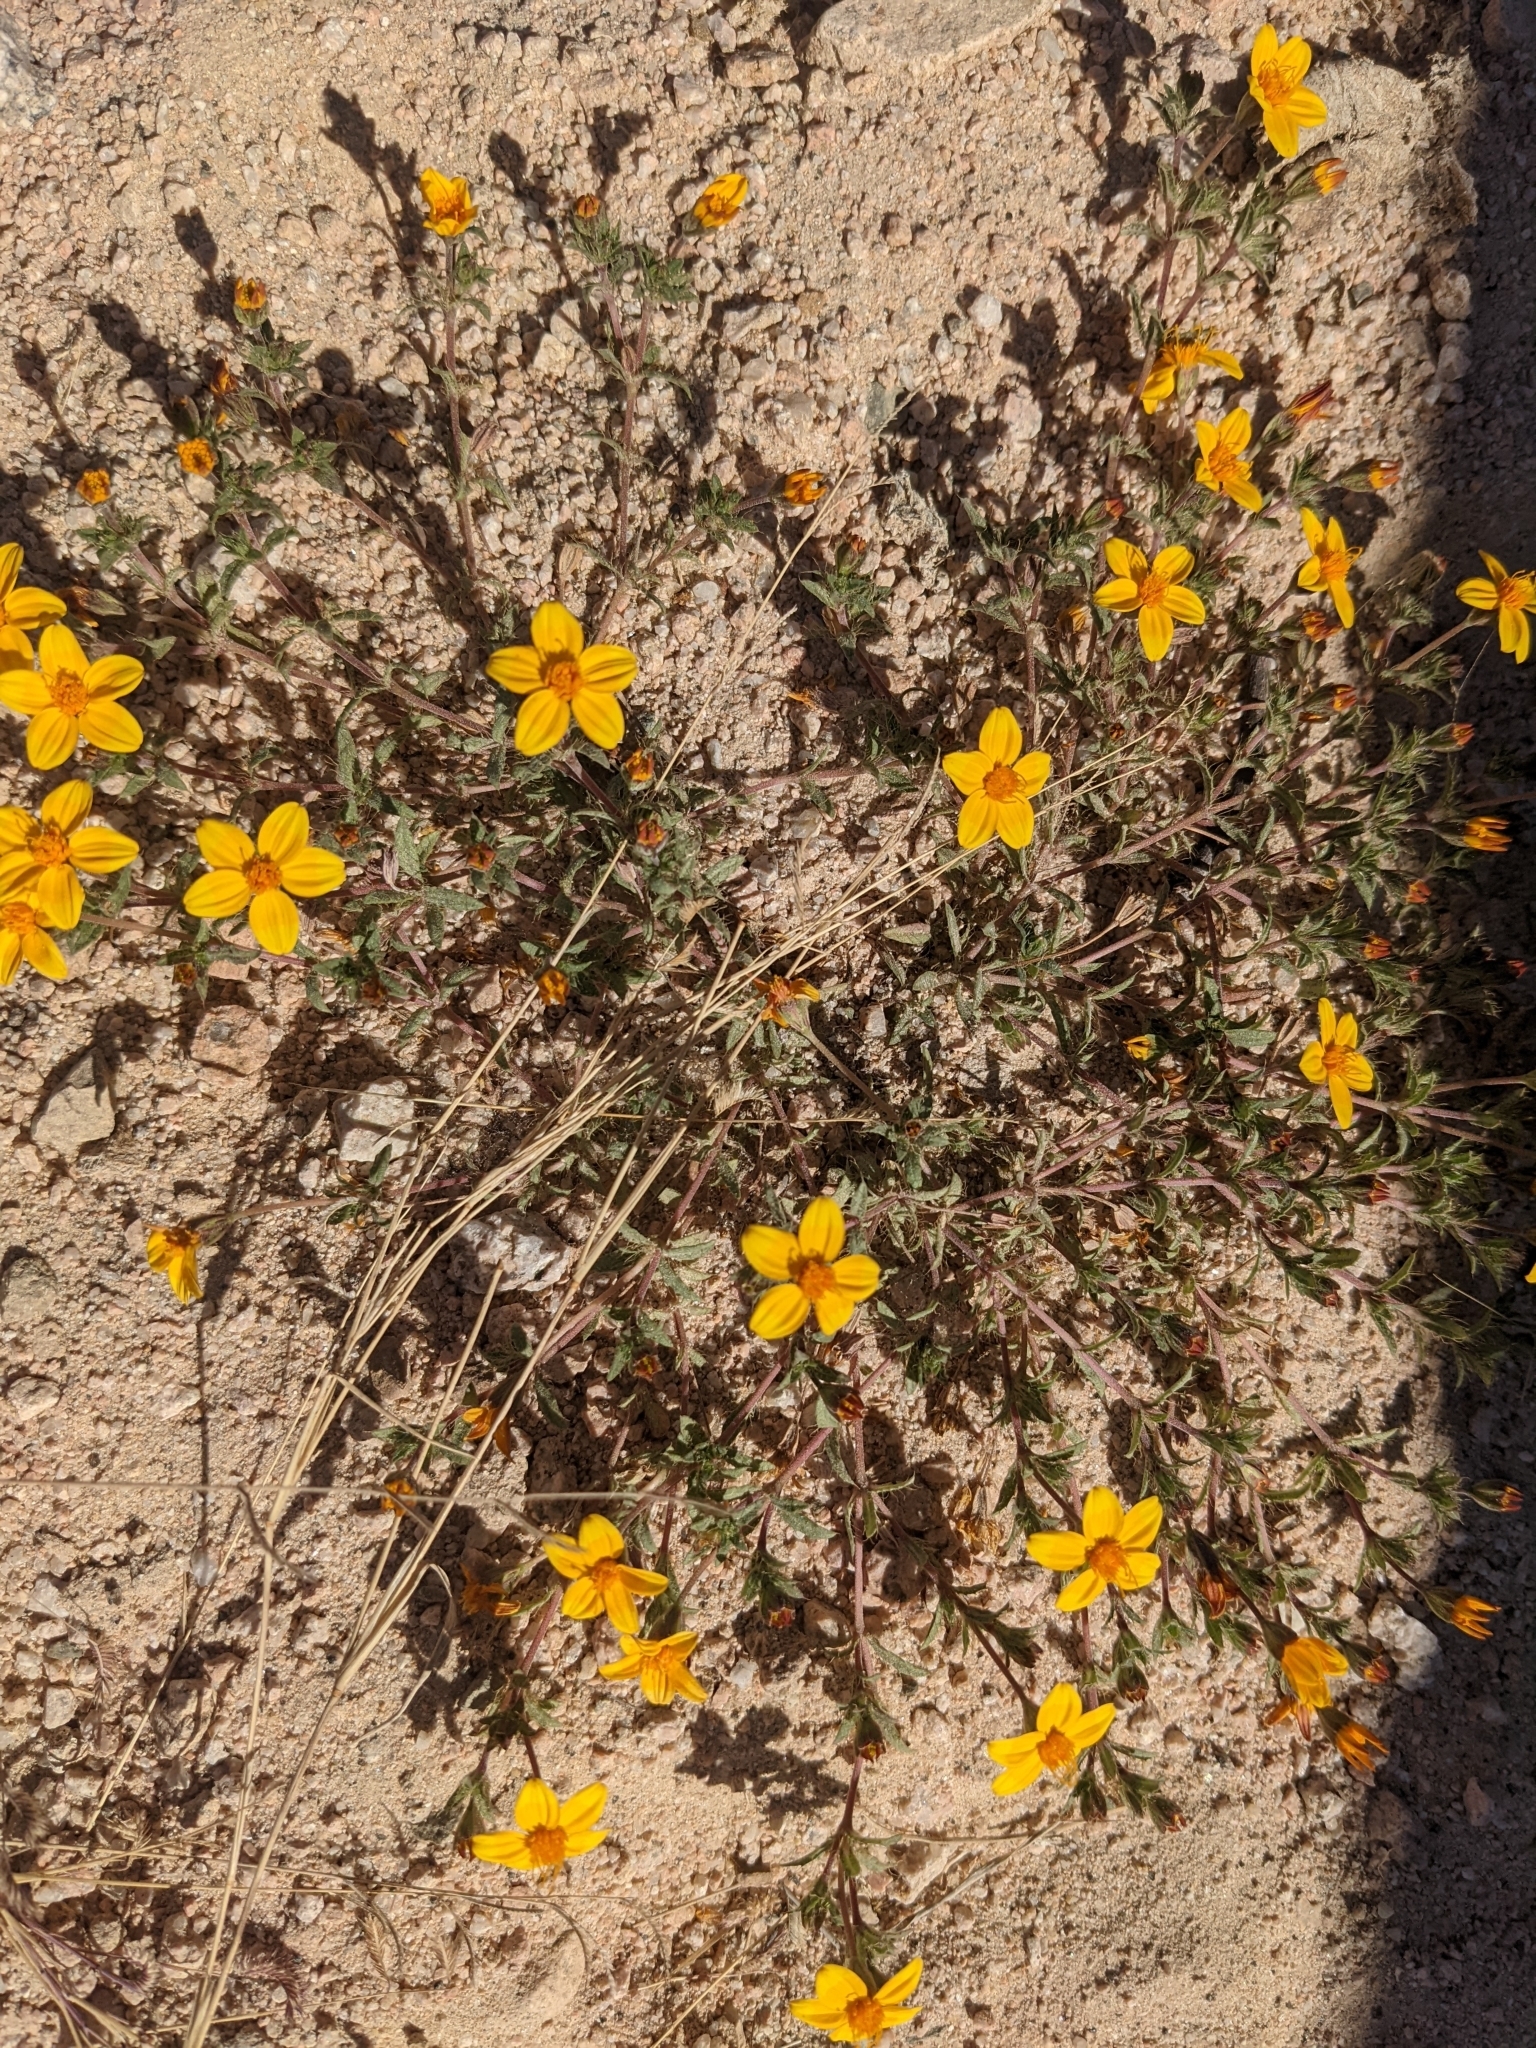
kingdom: Plantae
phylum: Tracheophyta
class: Magnoliopsida
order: Asterales
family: Asteraceae
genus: Pectis
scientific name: Pectis multiseta
